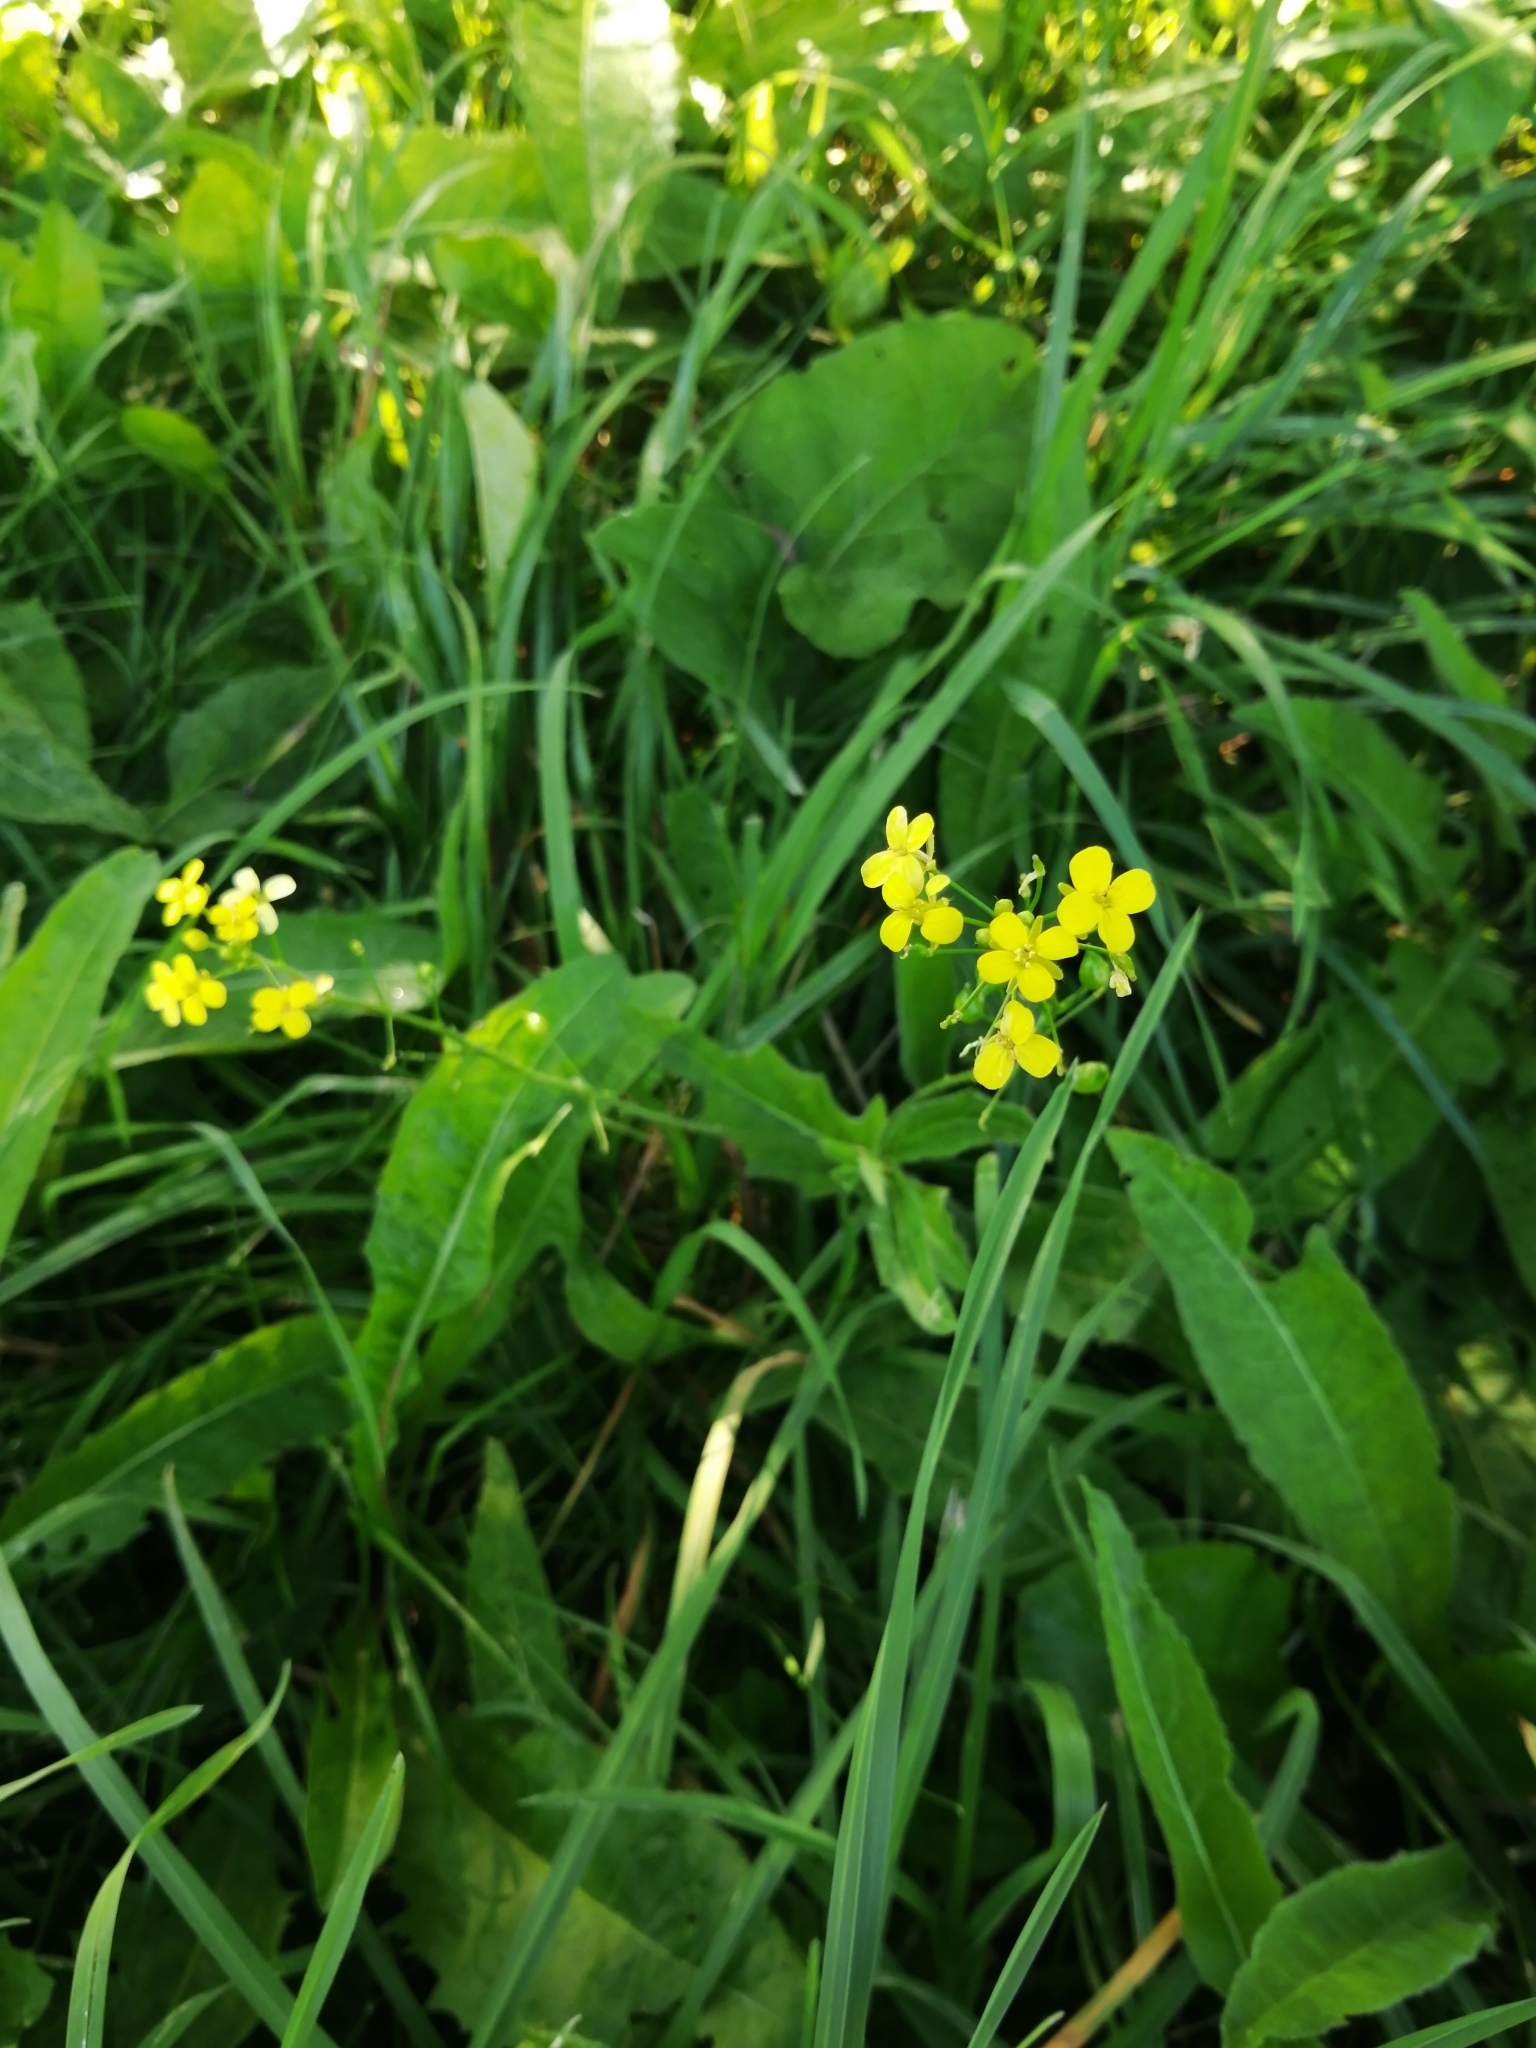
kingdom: Plantae
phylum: Tracheophyta
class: Magnoliopsida
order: Brassicales
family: Brassicaceae
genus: Bunias
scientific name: Bunias orientalis
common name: Warty-cabbage
